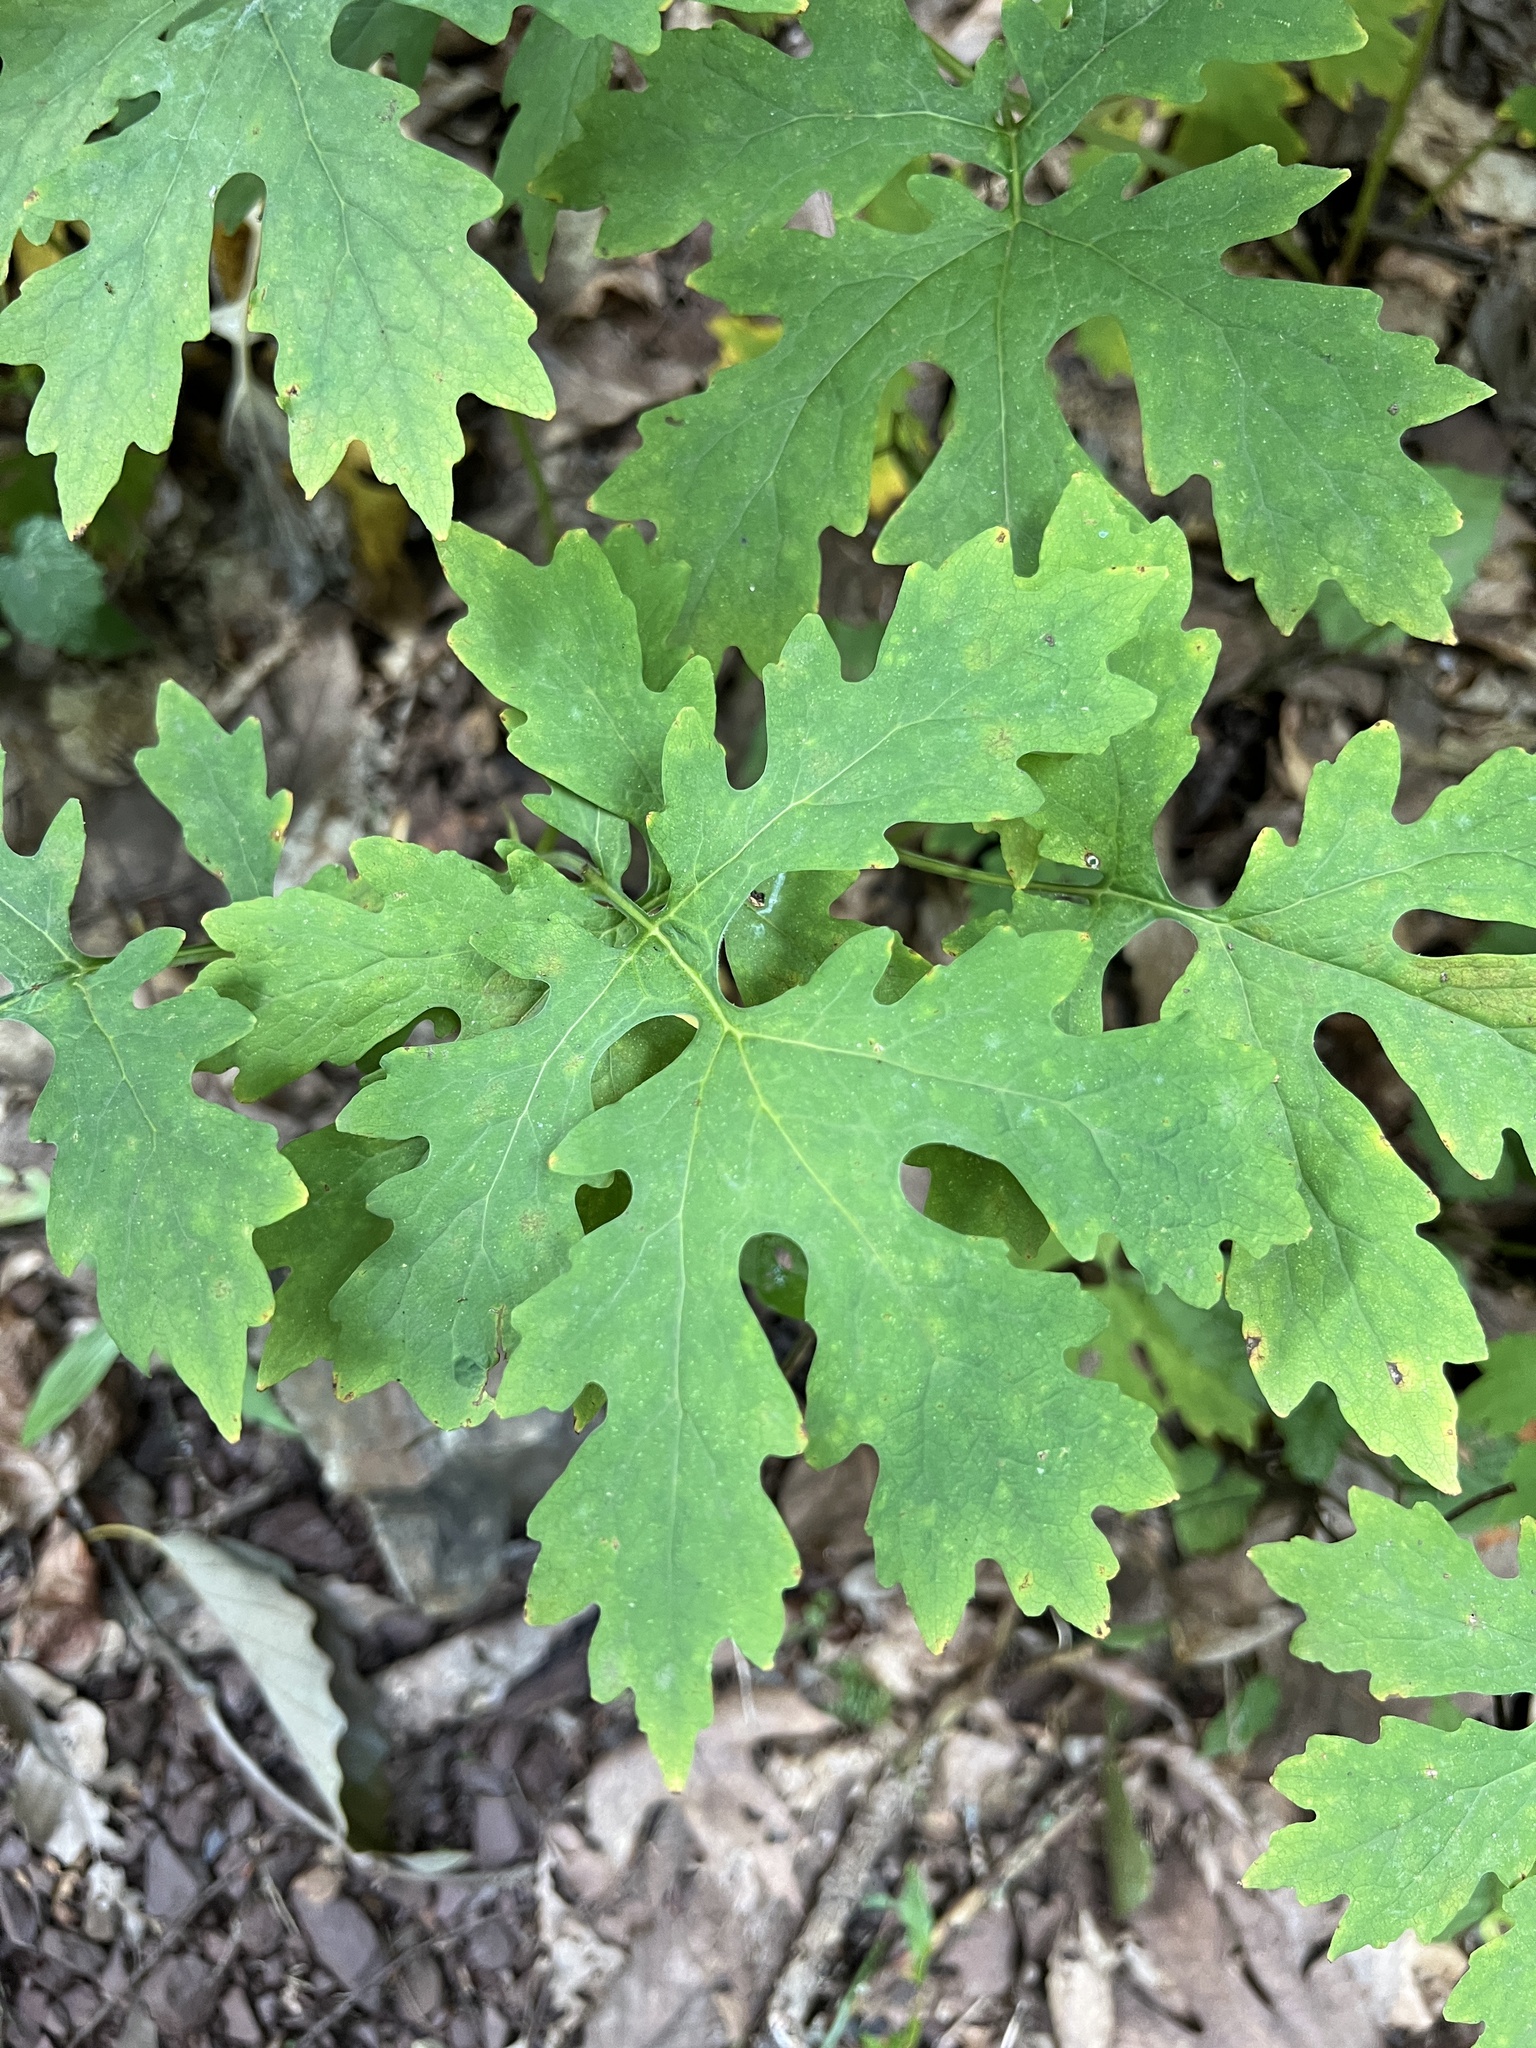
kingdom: Plantae
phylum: Tracheophyta
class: Magnoliopsida
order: Ranunculales
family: Papaveraceae
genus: Stylophorum
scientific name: Stylophorum diphyllum
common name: Celandine poppy
